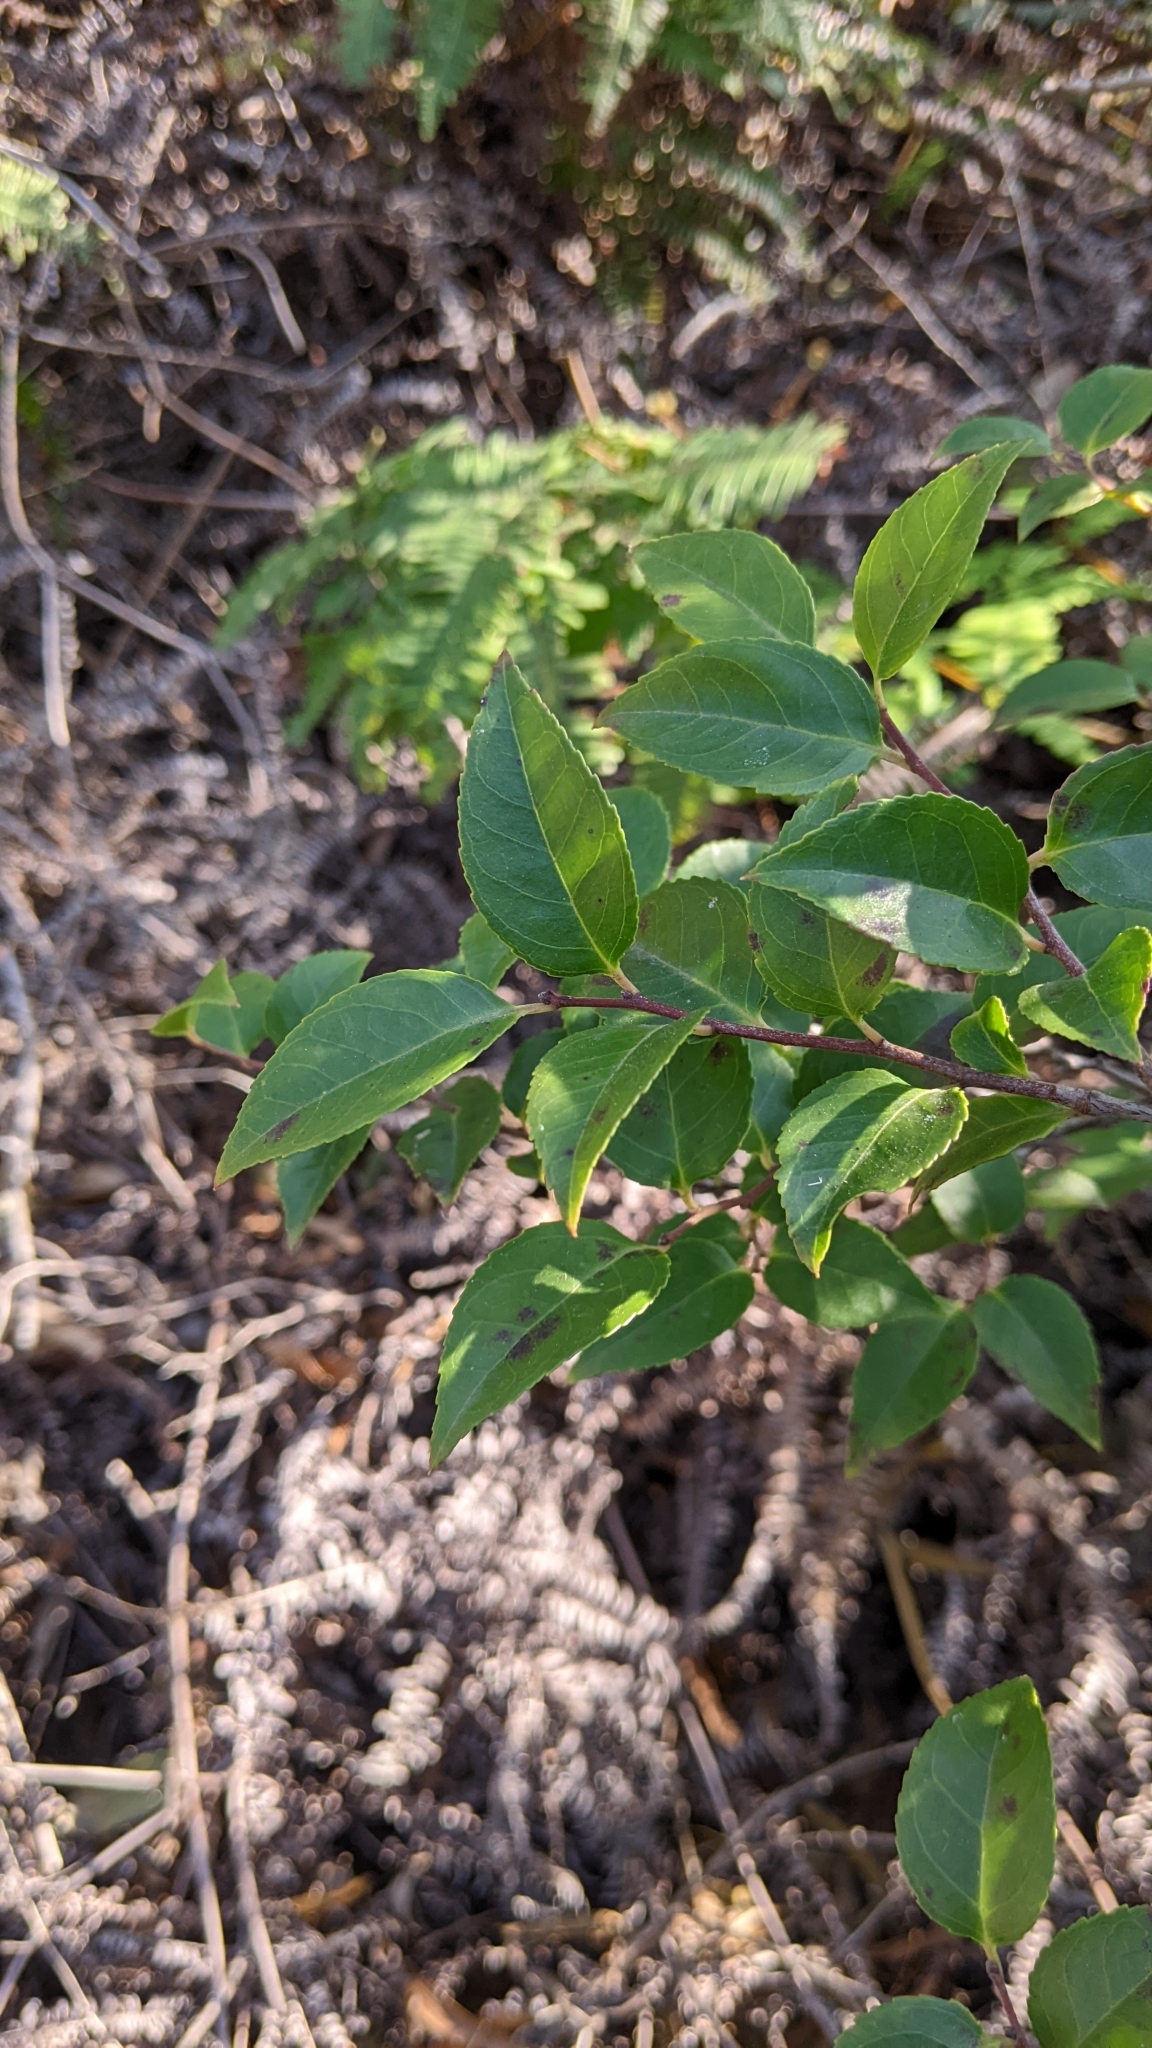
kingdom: Plantae
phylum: Tracheophyta
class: Magnoliopsida
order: Ericales
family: Ericaceae
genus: Vaccinium
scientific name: Vaccinium wrightii
